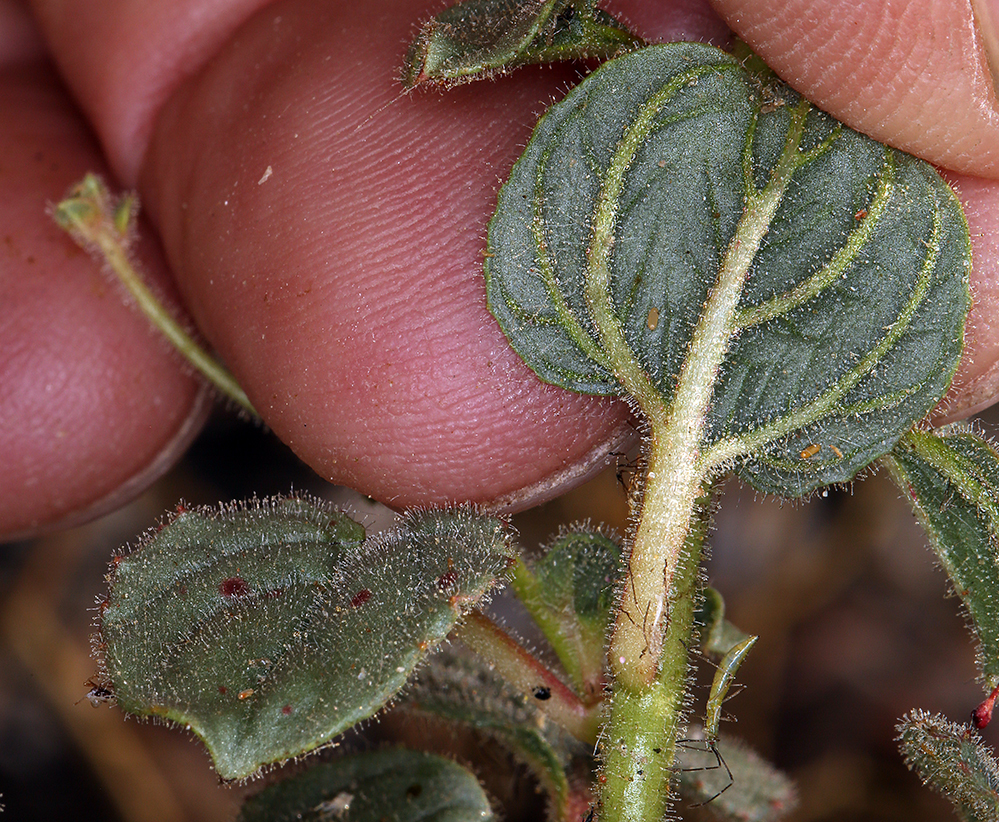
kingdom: Plantae
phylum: Tracheophyta
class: Magnoliopsida
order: Myrtales
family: Onagraceae
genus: Chylismia
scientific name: Chylismia heterochroma
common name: Shockley's evening primrose
